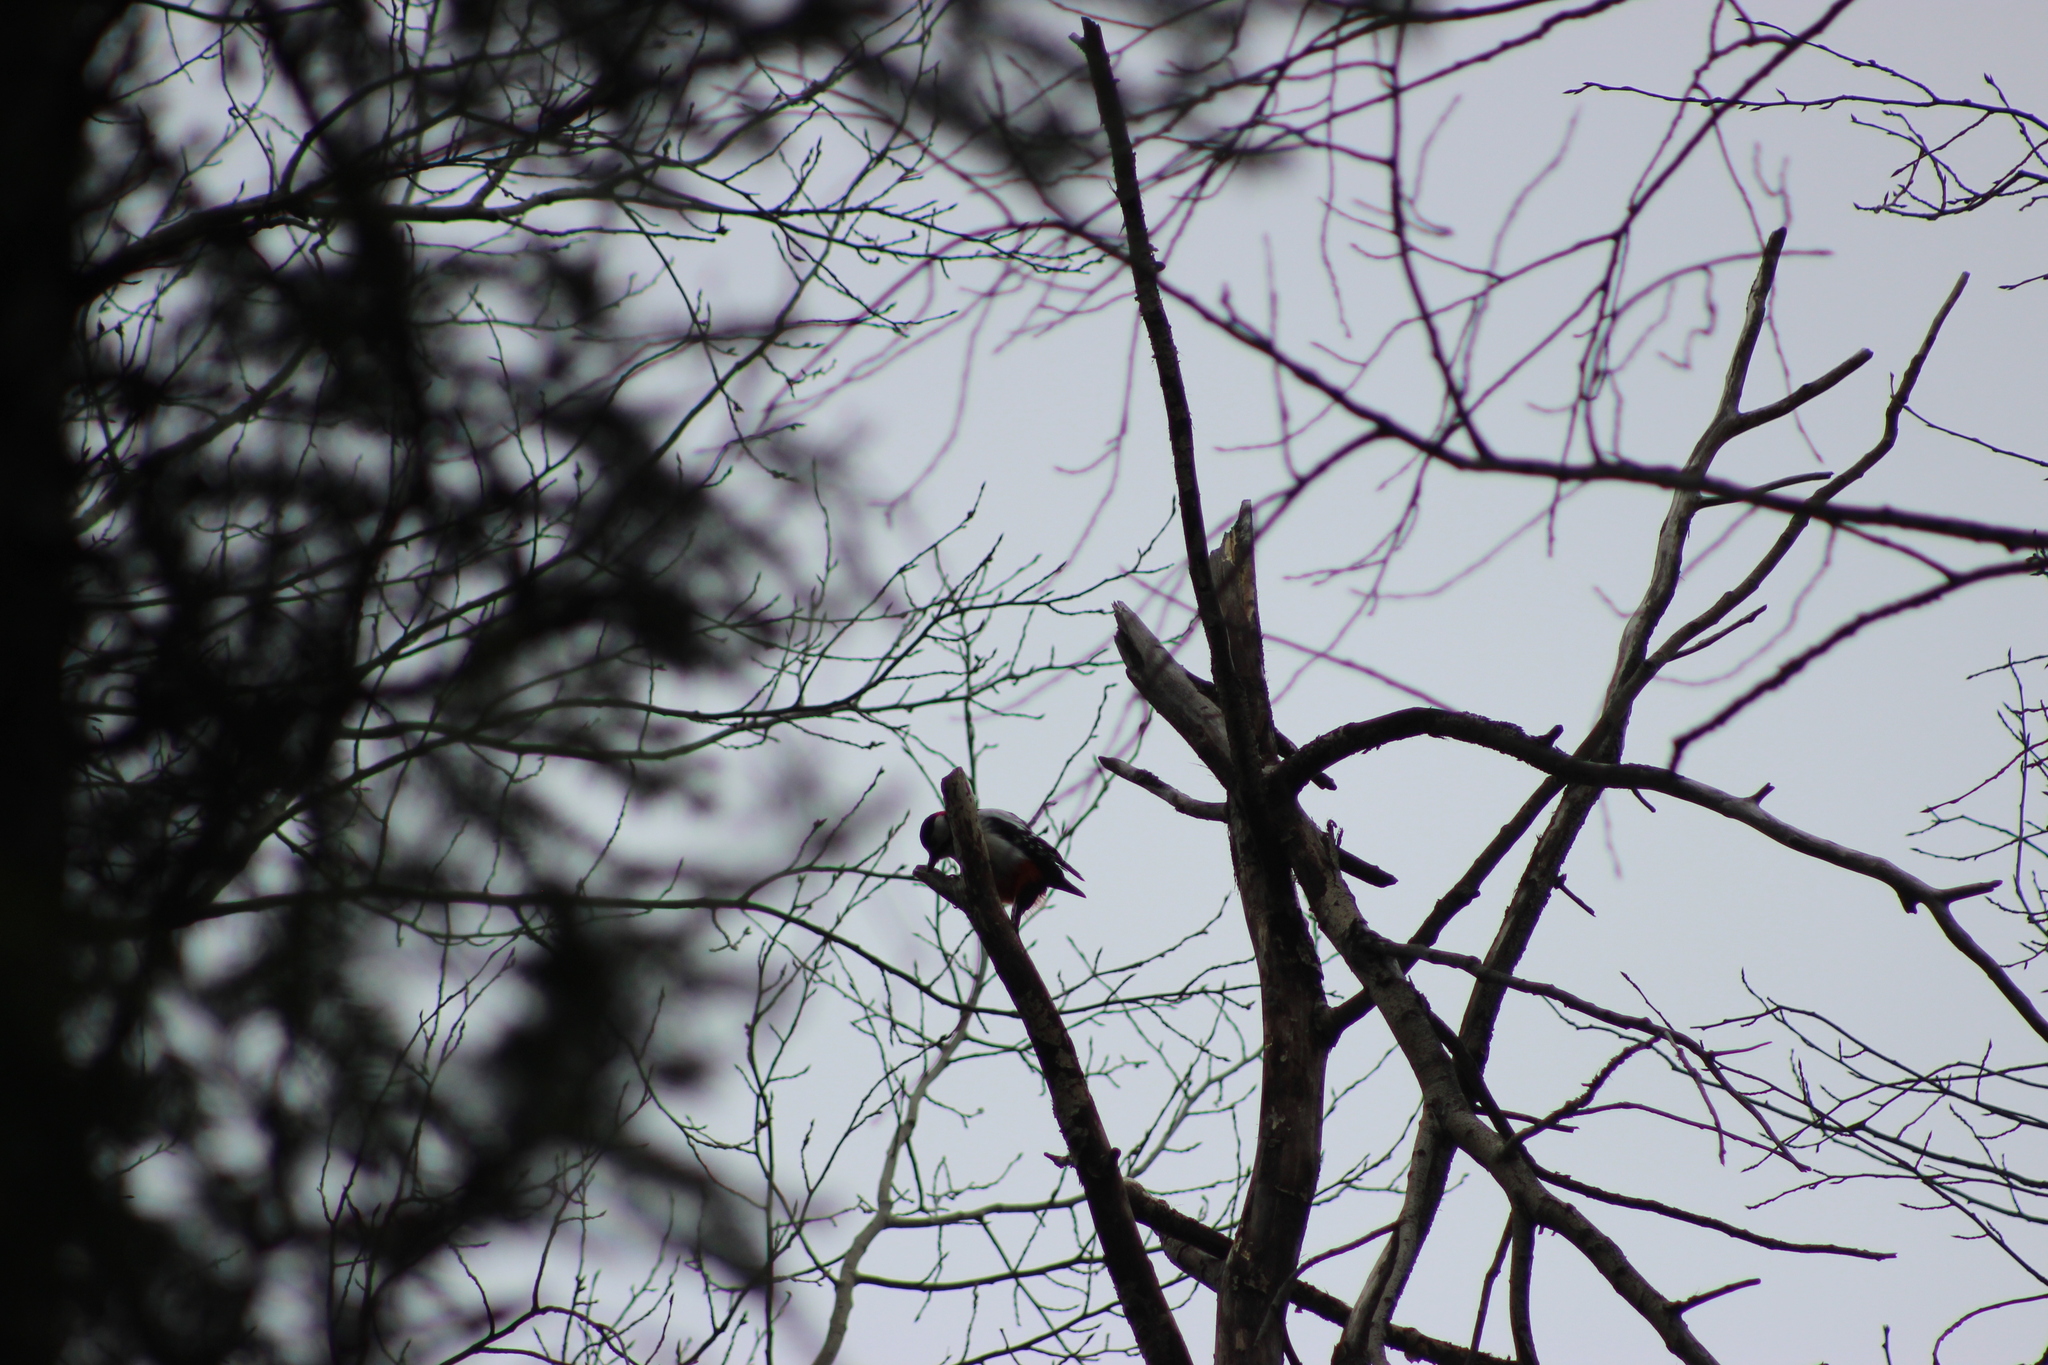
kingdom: Animalia
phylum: Chordata
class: Aves
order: Piciformes
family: Picidae
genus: Dendrocopos
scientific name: Dendrocopos major
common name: Great spotted woodpecker
